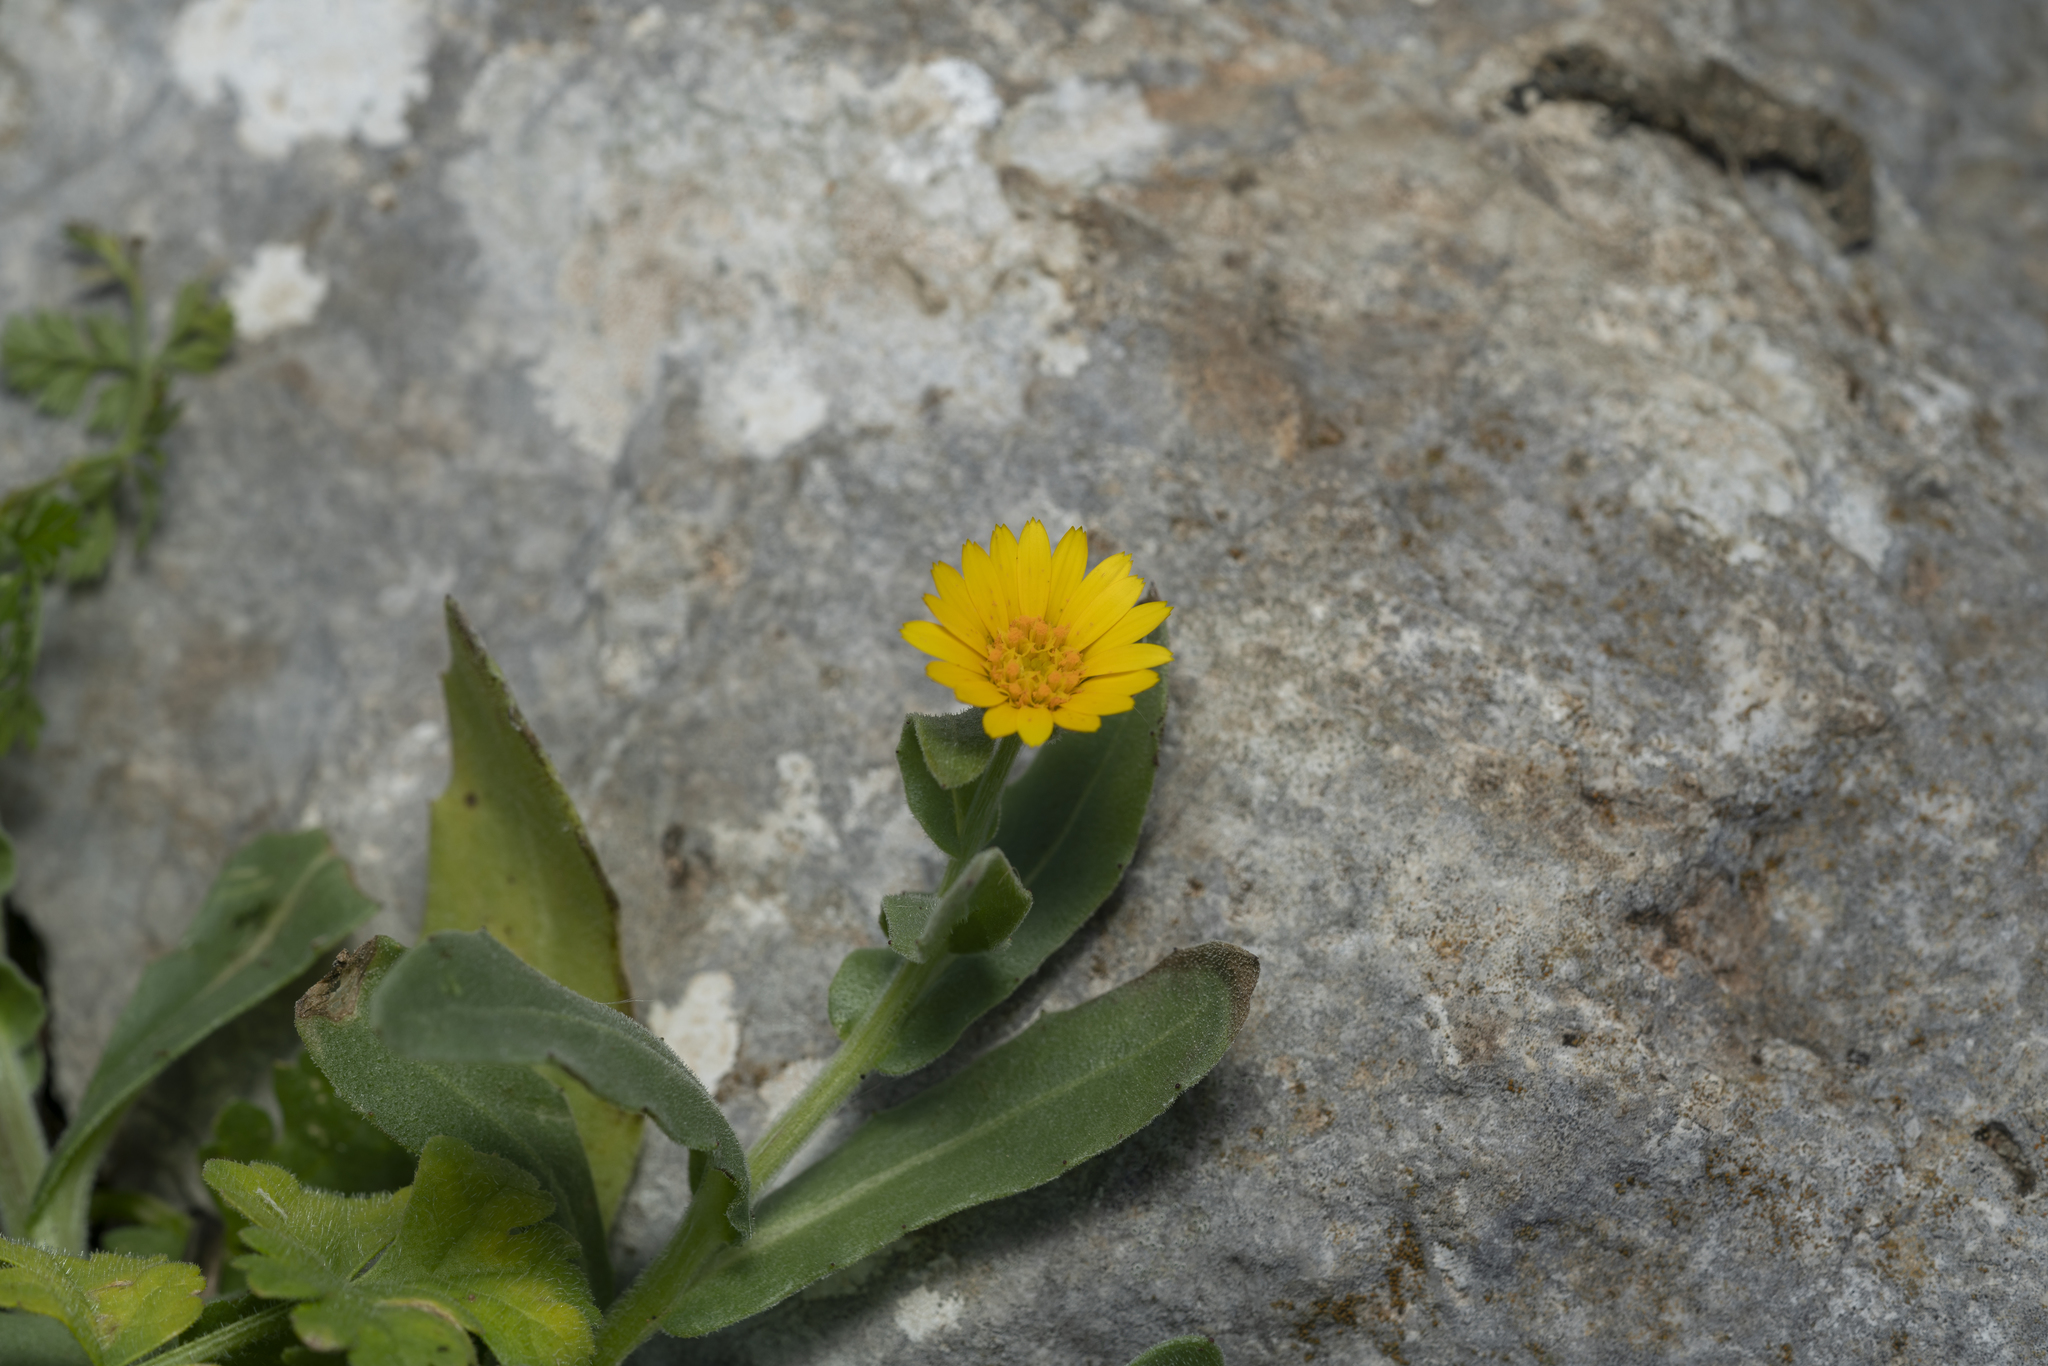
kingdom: Plantae
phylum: Tracheophyta
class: Magnoliopsida
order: Asterales
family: Asteraceae
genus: Calendula
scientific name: Calendula arvensis
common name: Field marigold
